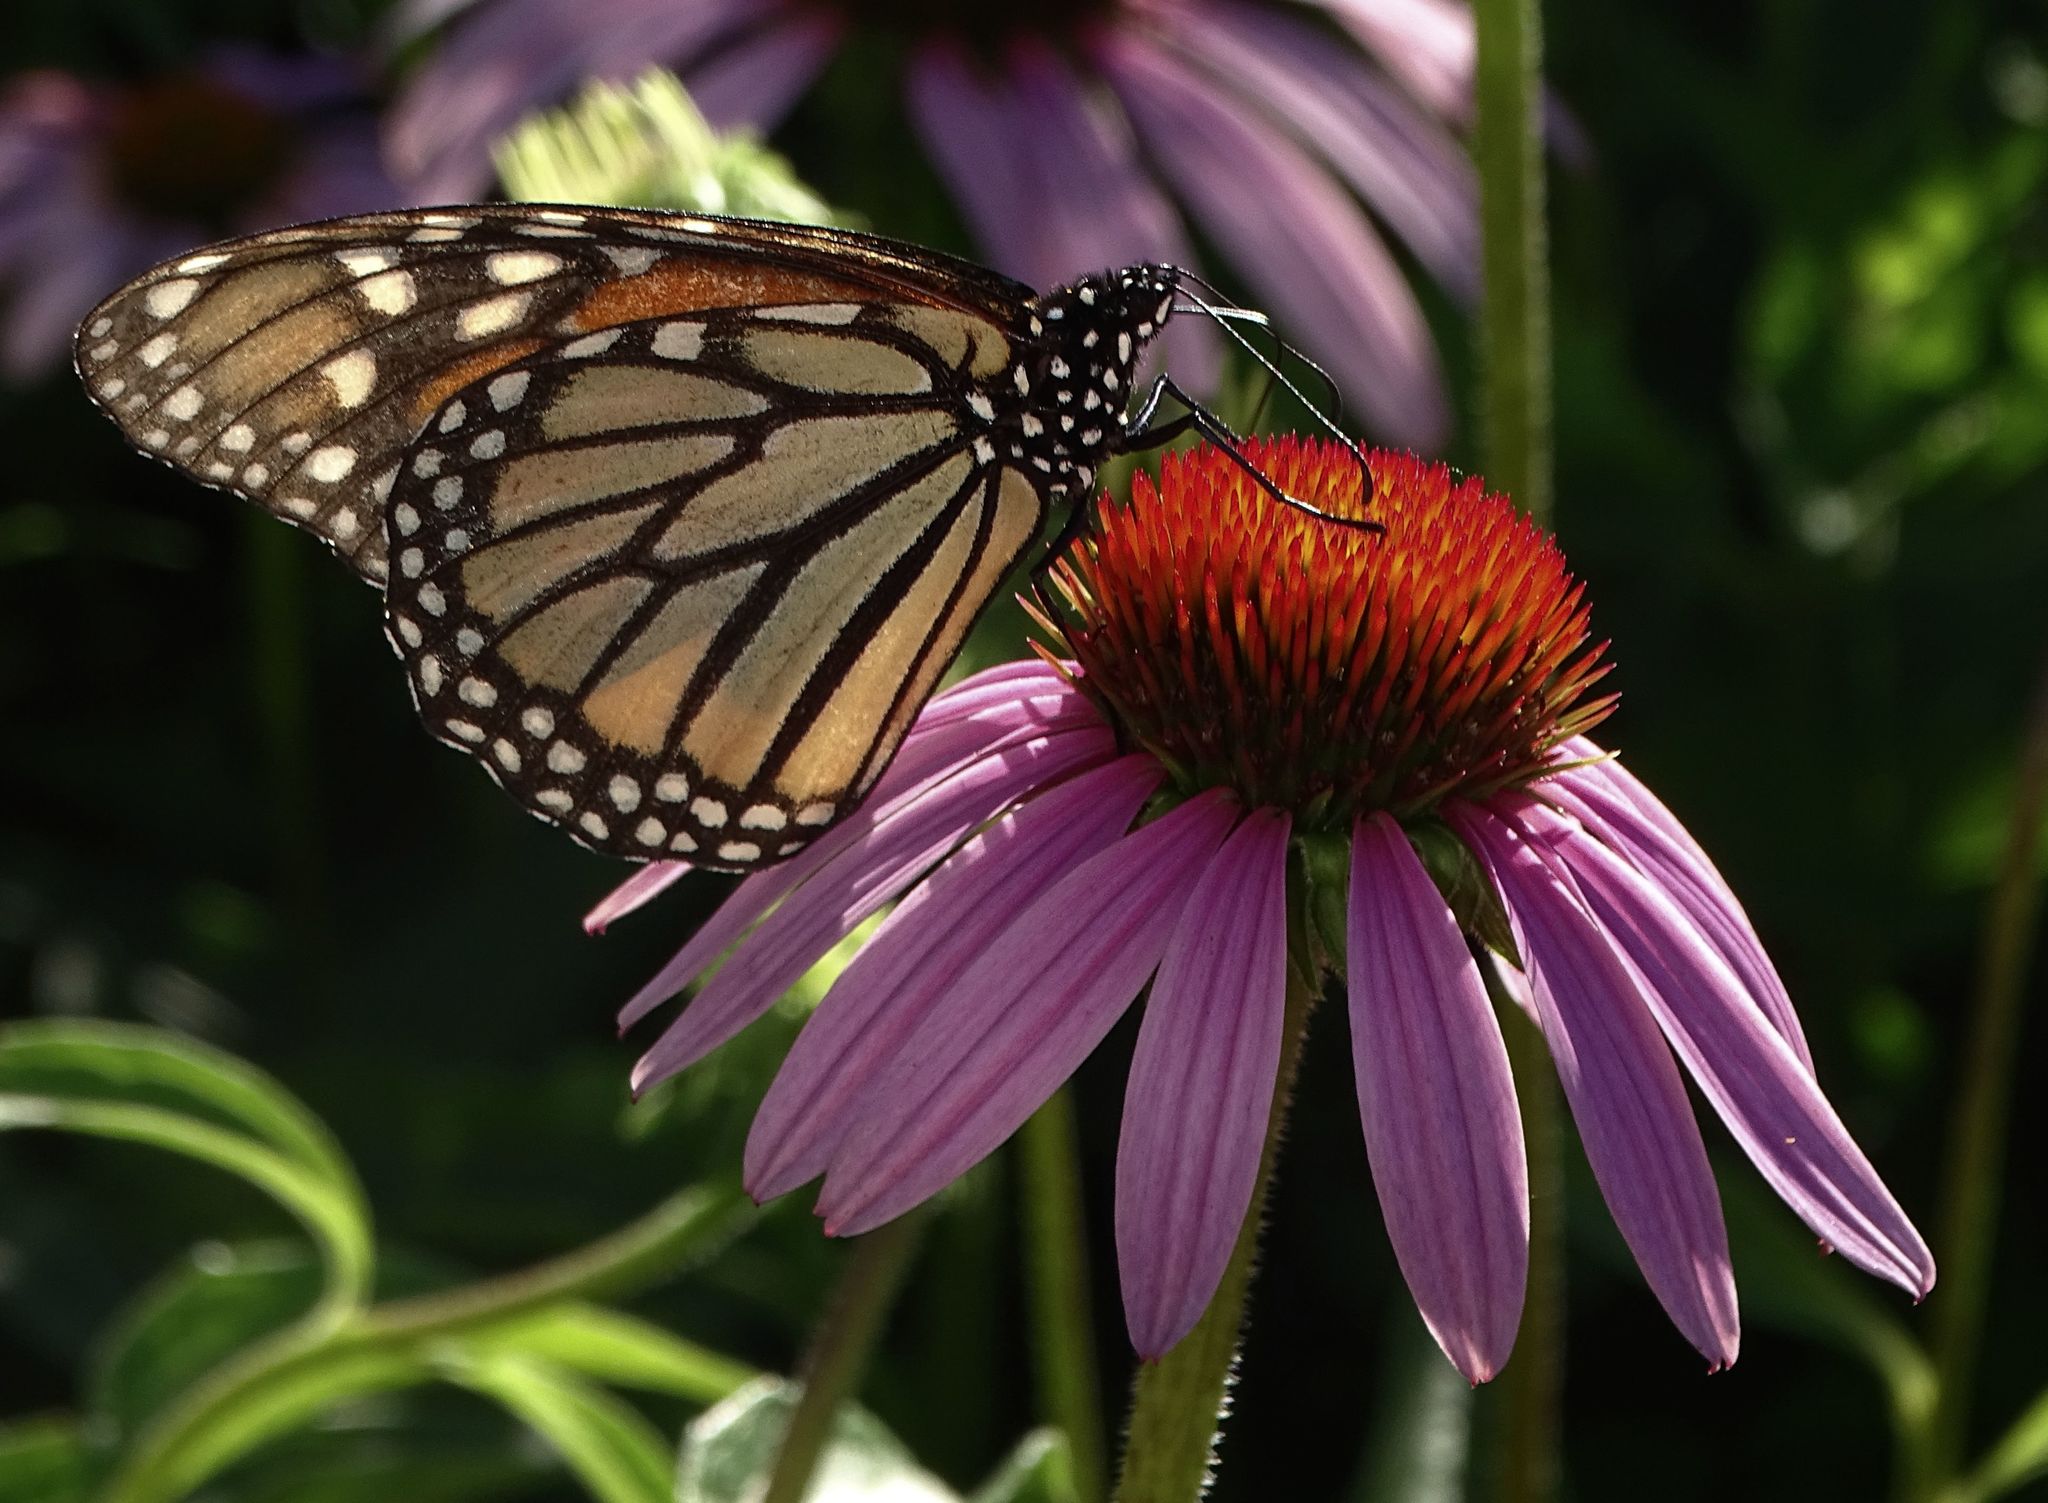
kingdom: Animalia
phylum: Arthropoda
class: Insecta
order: Lepidoptera
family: Nymphalidae
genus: Danaus
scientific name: Danaus plexippus
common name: Monarch
